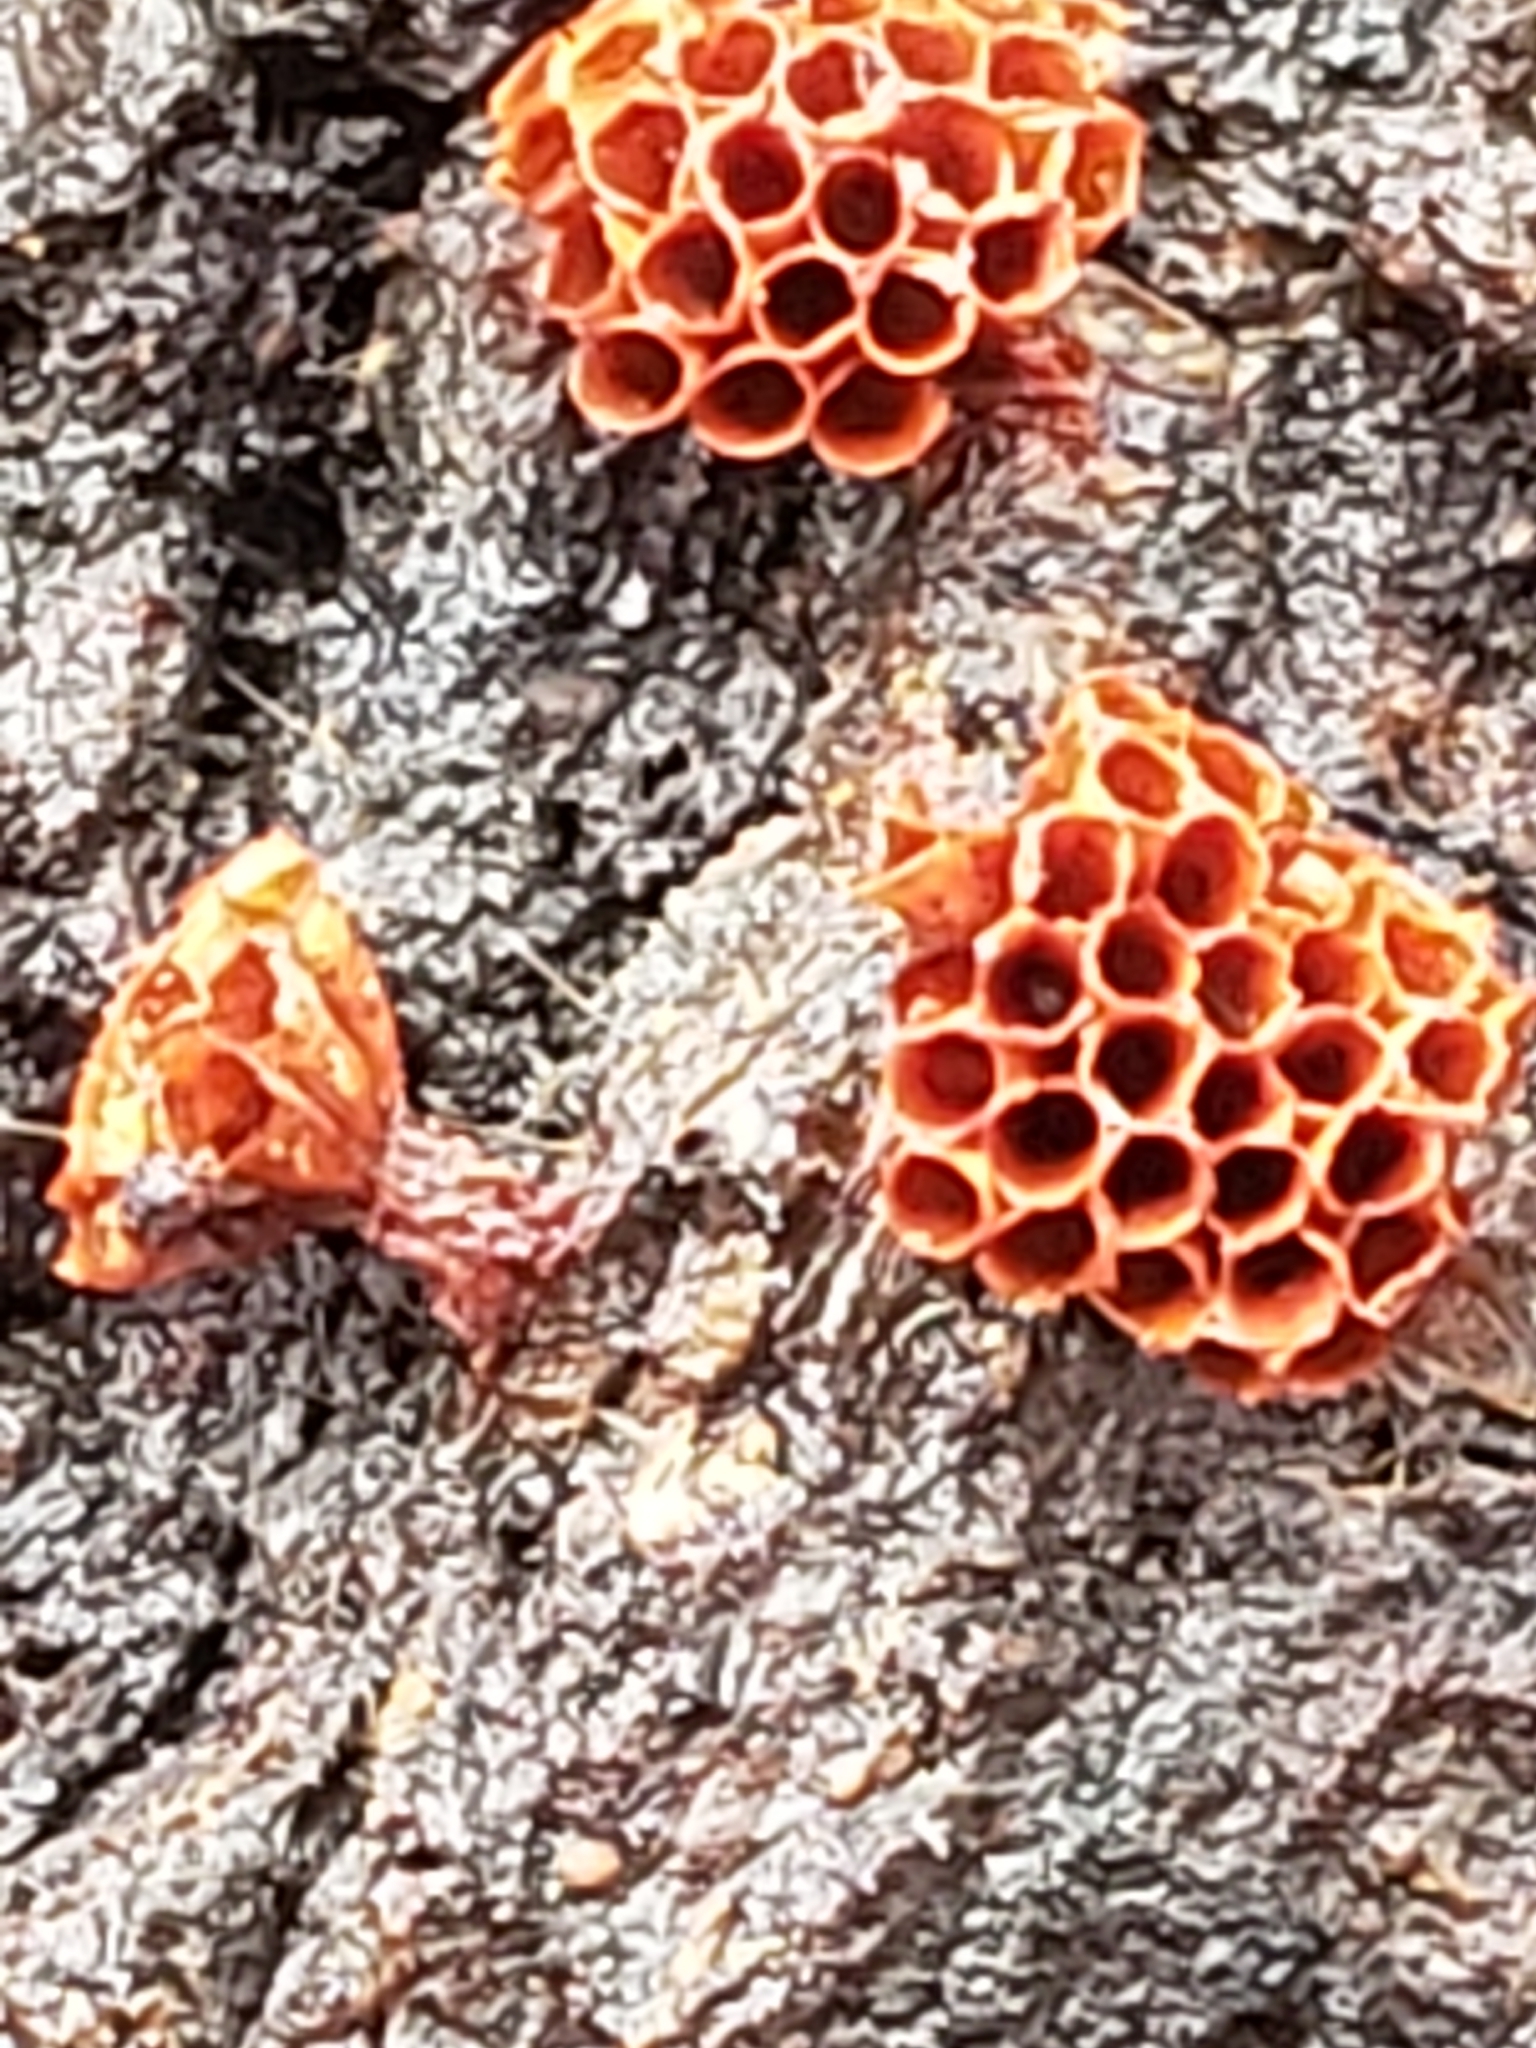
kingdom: Protozoa
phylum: Mycetozoa
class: Myxomycetes
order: Trichiales
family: Trichiaceae
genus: Metatrichia
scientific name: Metatrichia vesparia
